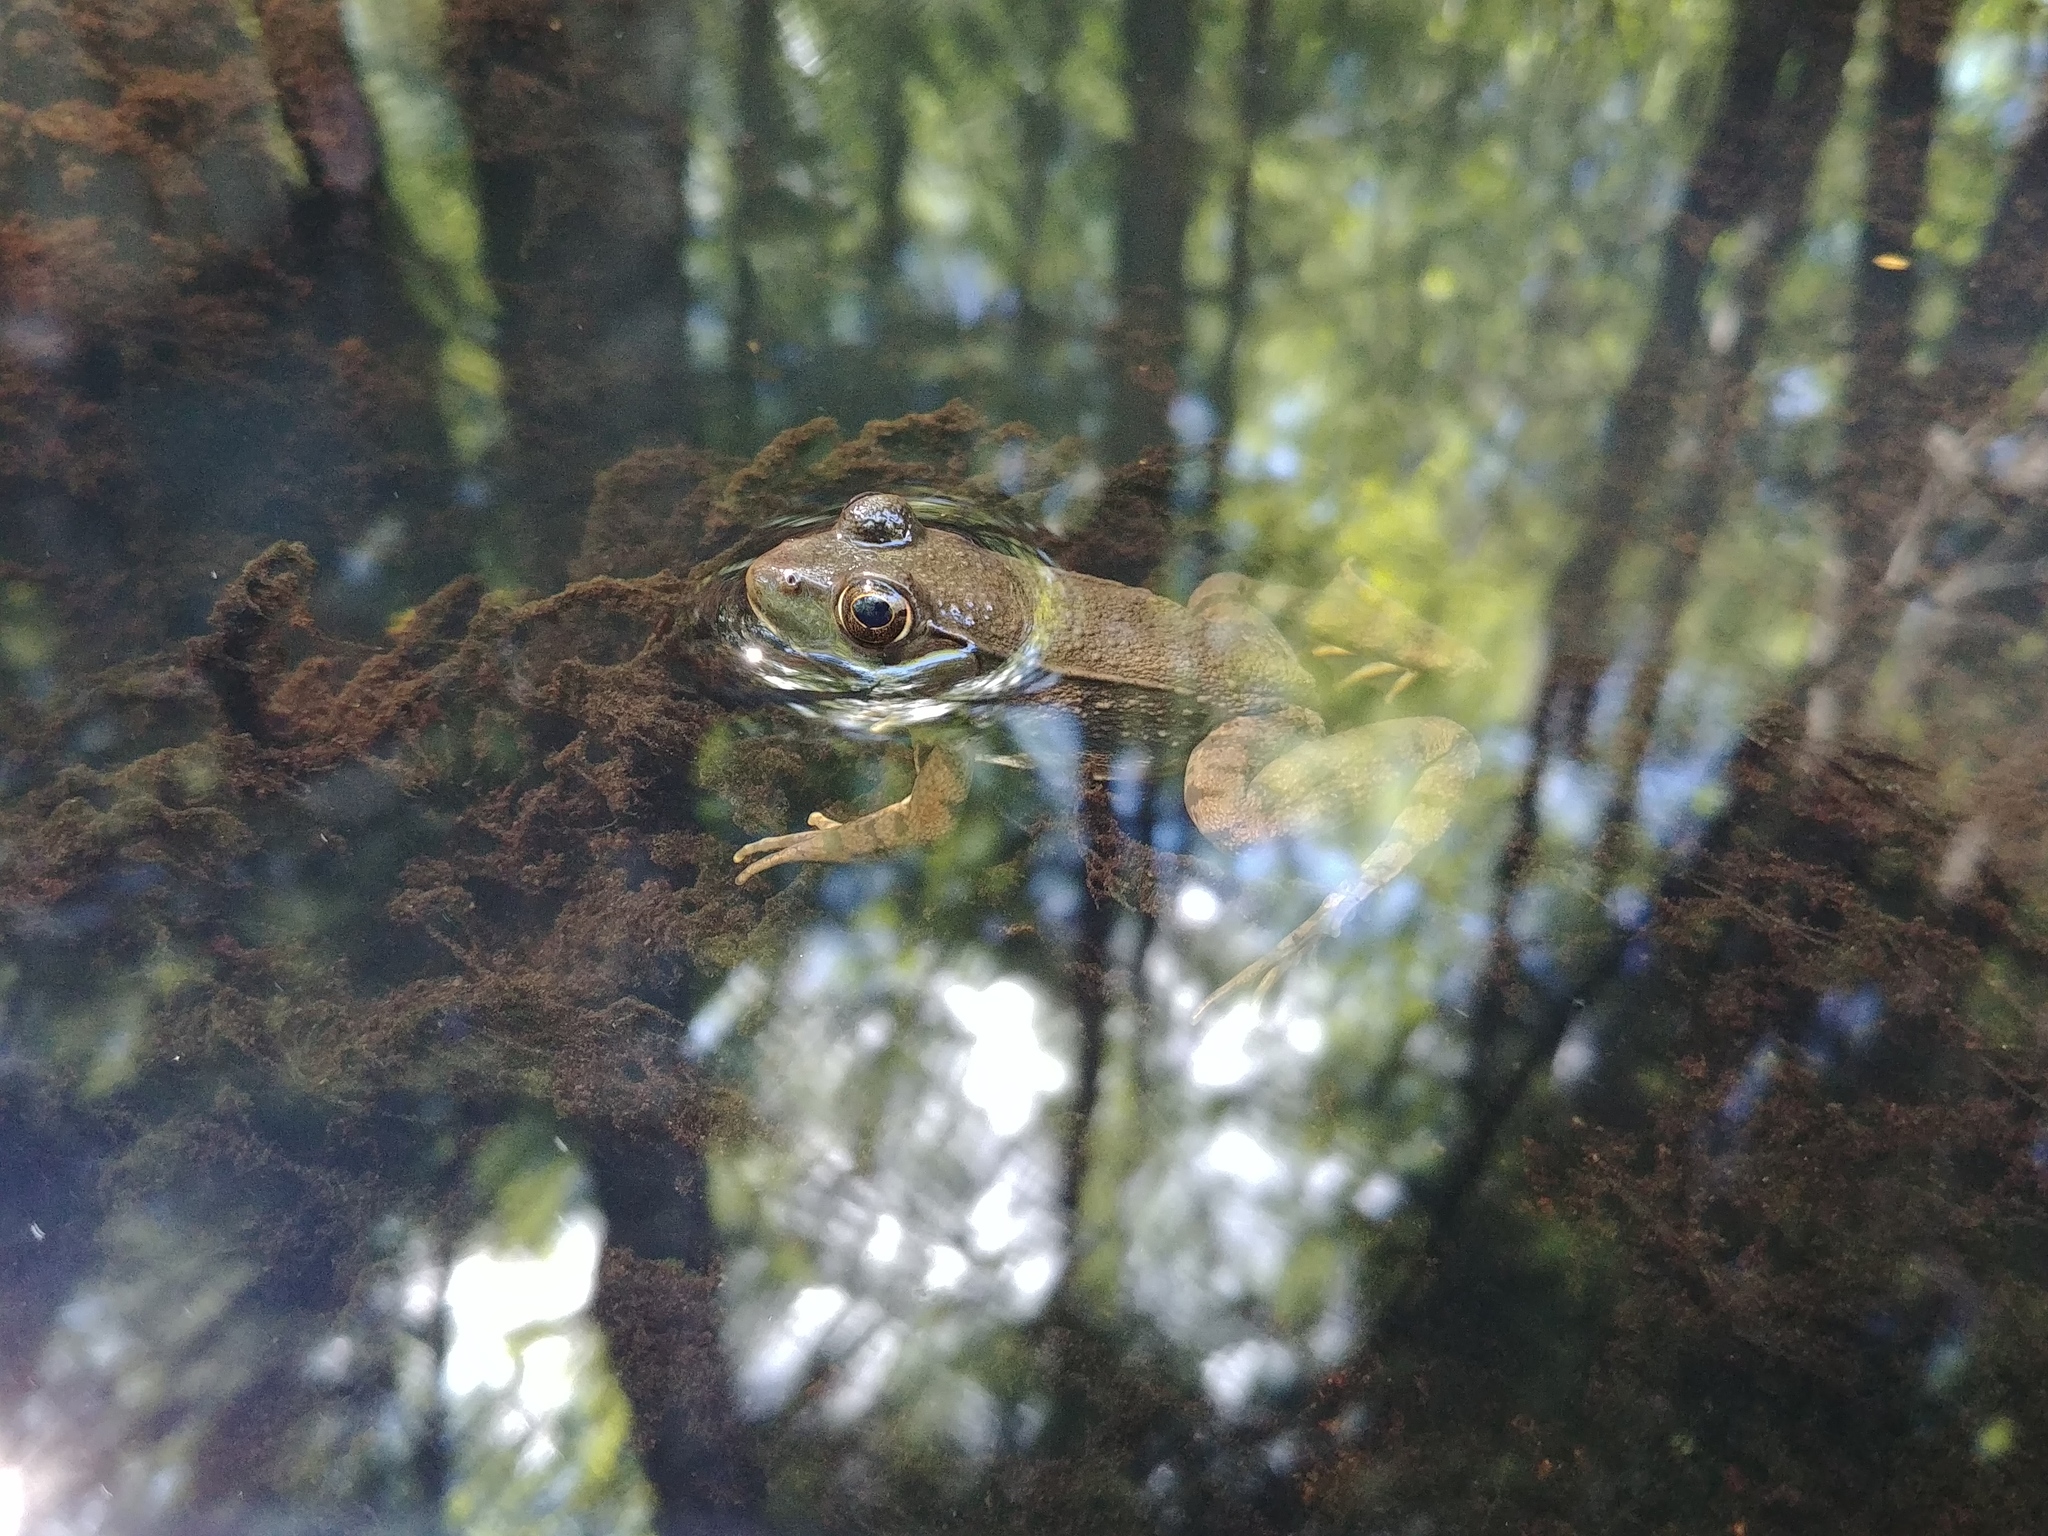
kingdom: Animalia
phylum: Chordata
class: Amphibia
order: Anura
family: Ranidae
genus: Lithobates
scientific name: Lithobates clamitans
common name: Green frog
